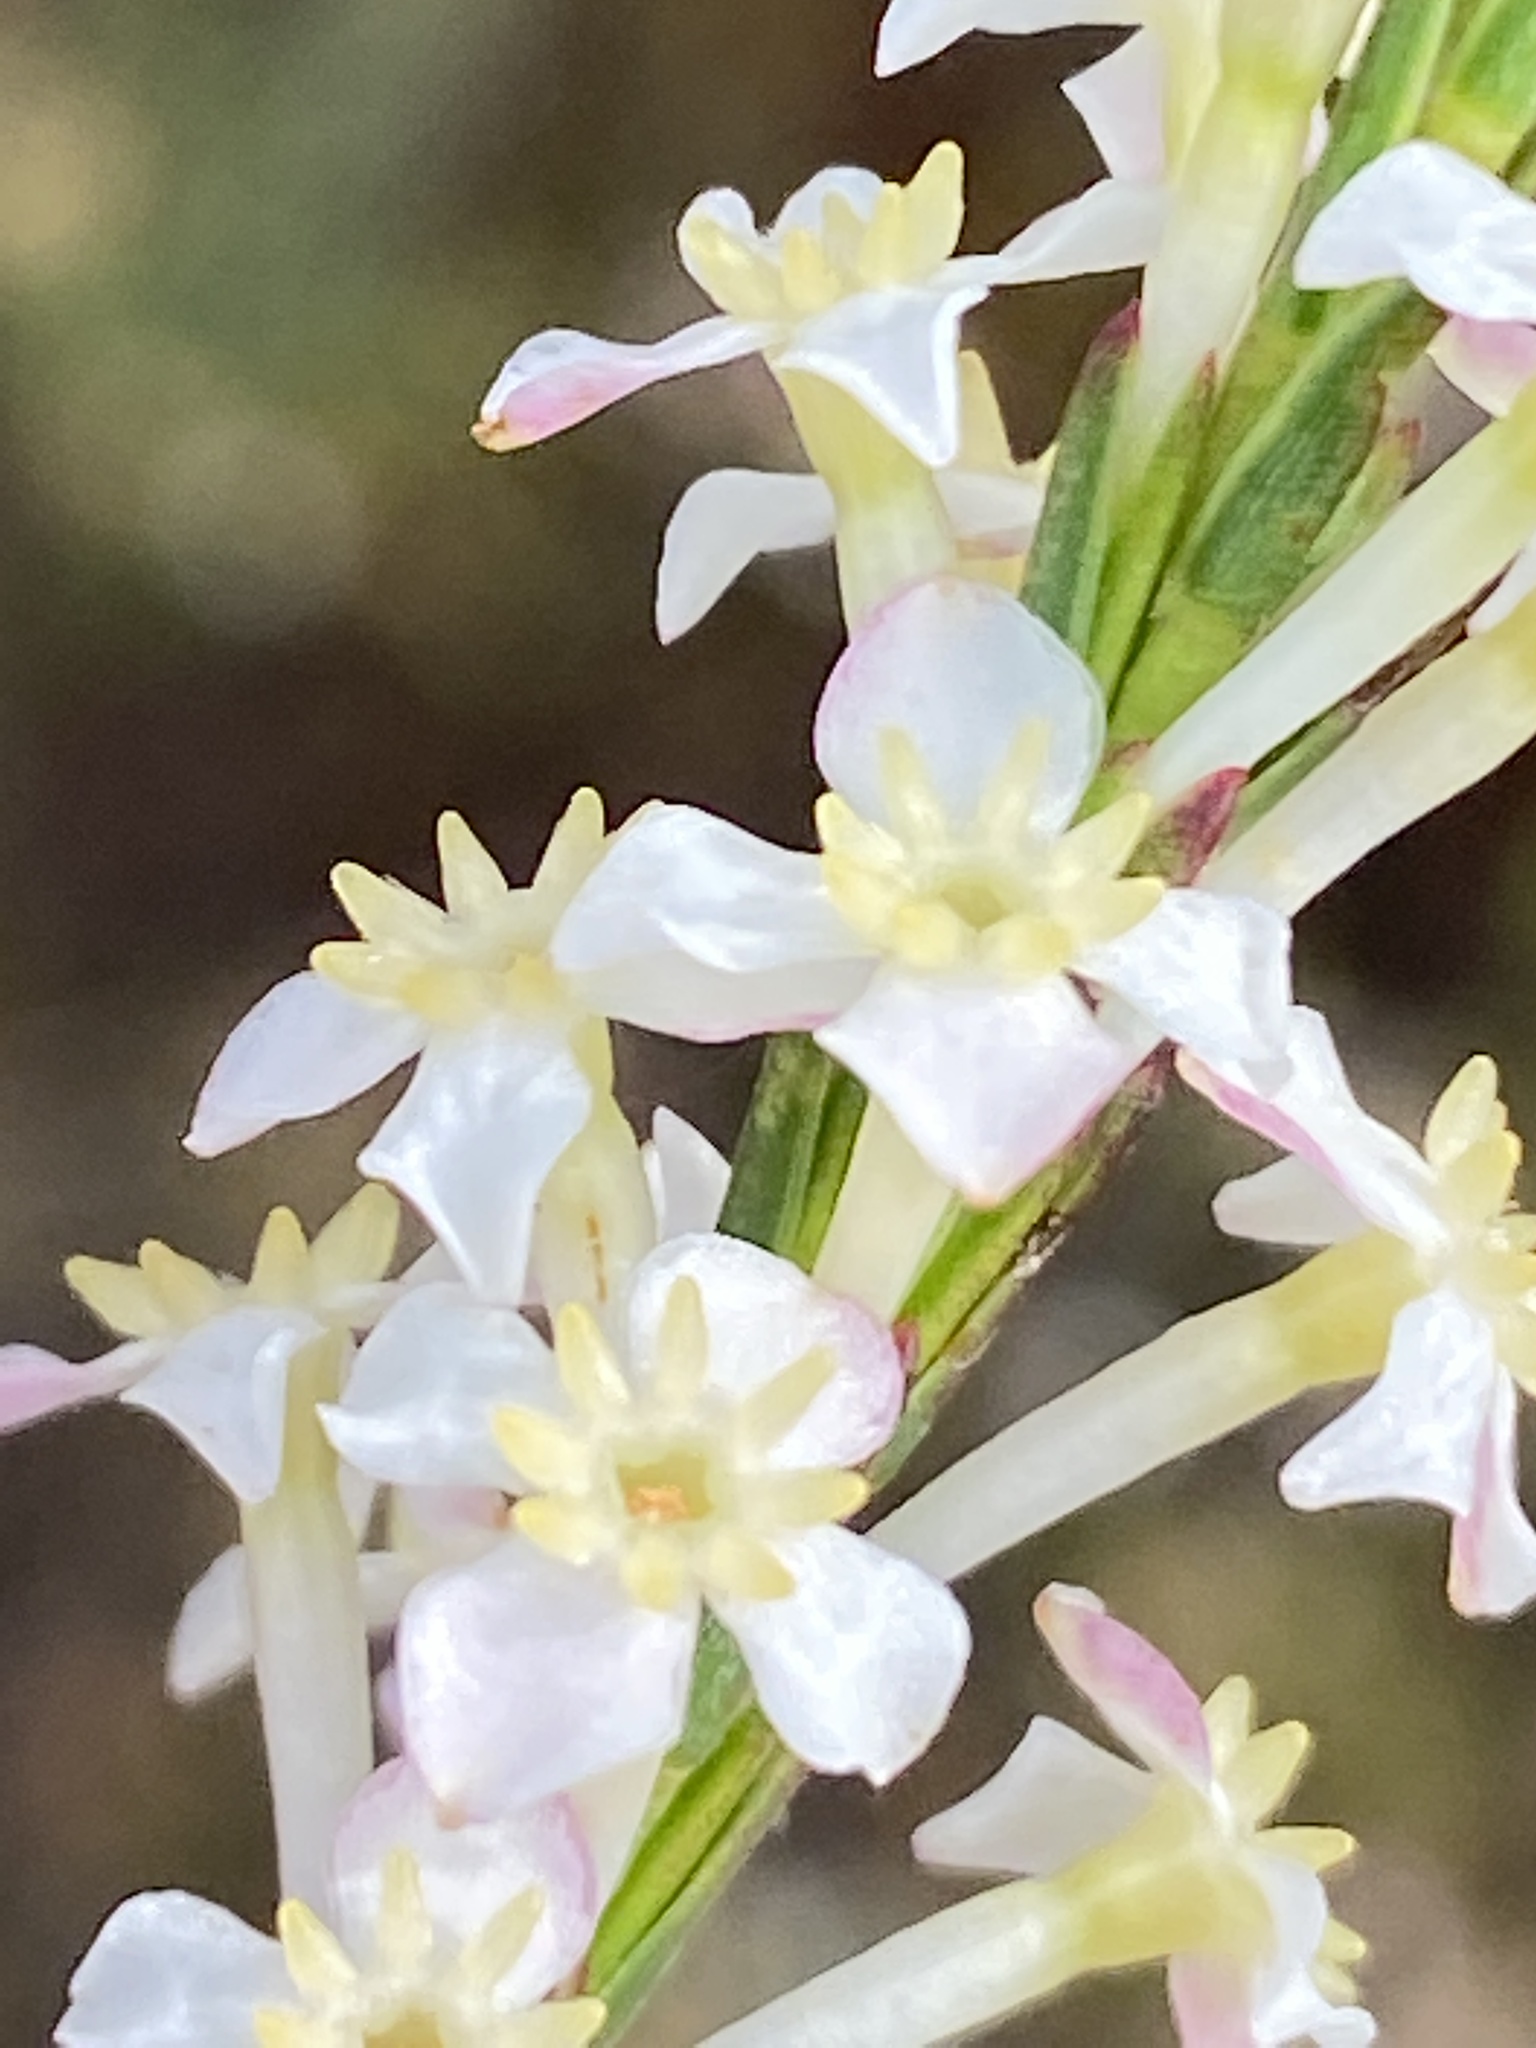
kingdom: Plantae
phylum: Tracheophyta
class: Magnoliopsida
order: Malvales
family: Thymelaeaceae
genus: Struthiola
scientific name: Struthiola dodecandra
